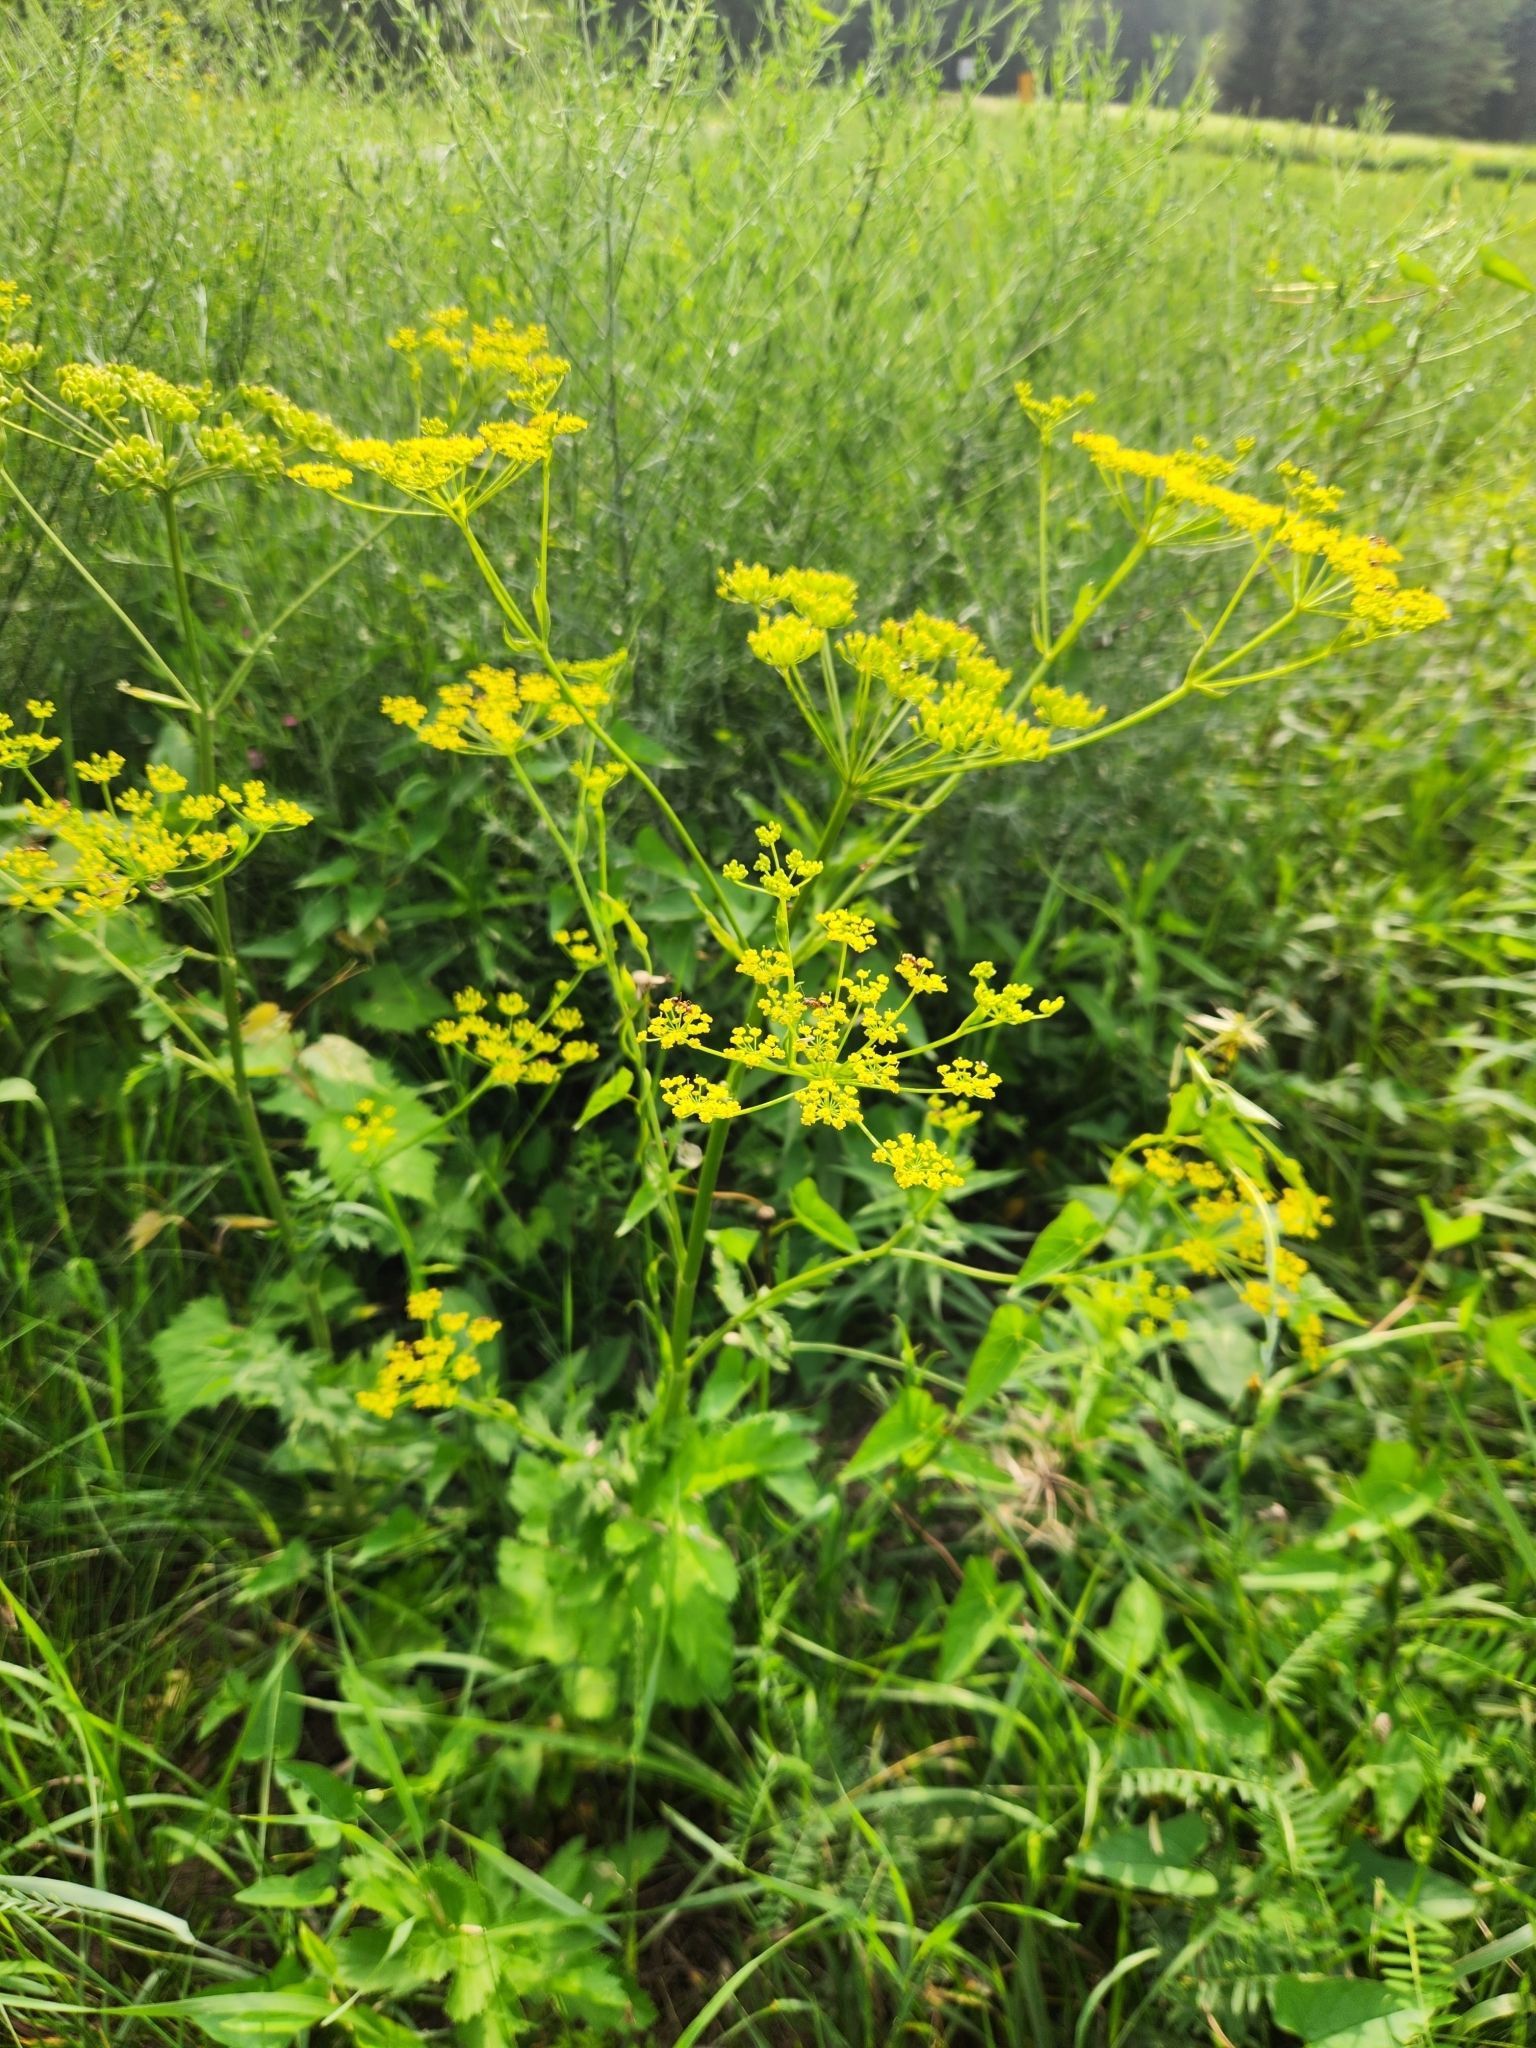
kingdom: Plantae
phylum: Tracheophyta
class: Magnoliopsida
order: Apiales
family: Apiaceae
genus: Pastinaca
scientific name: Pastinaca sativa
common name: Wild parsnip
